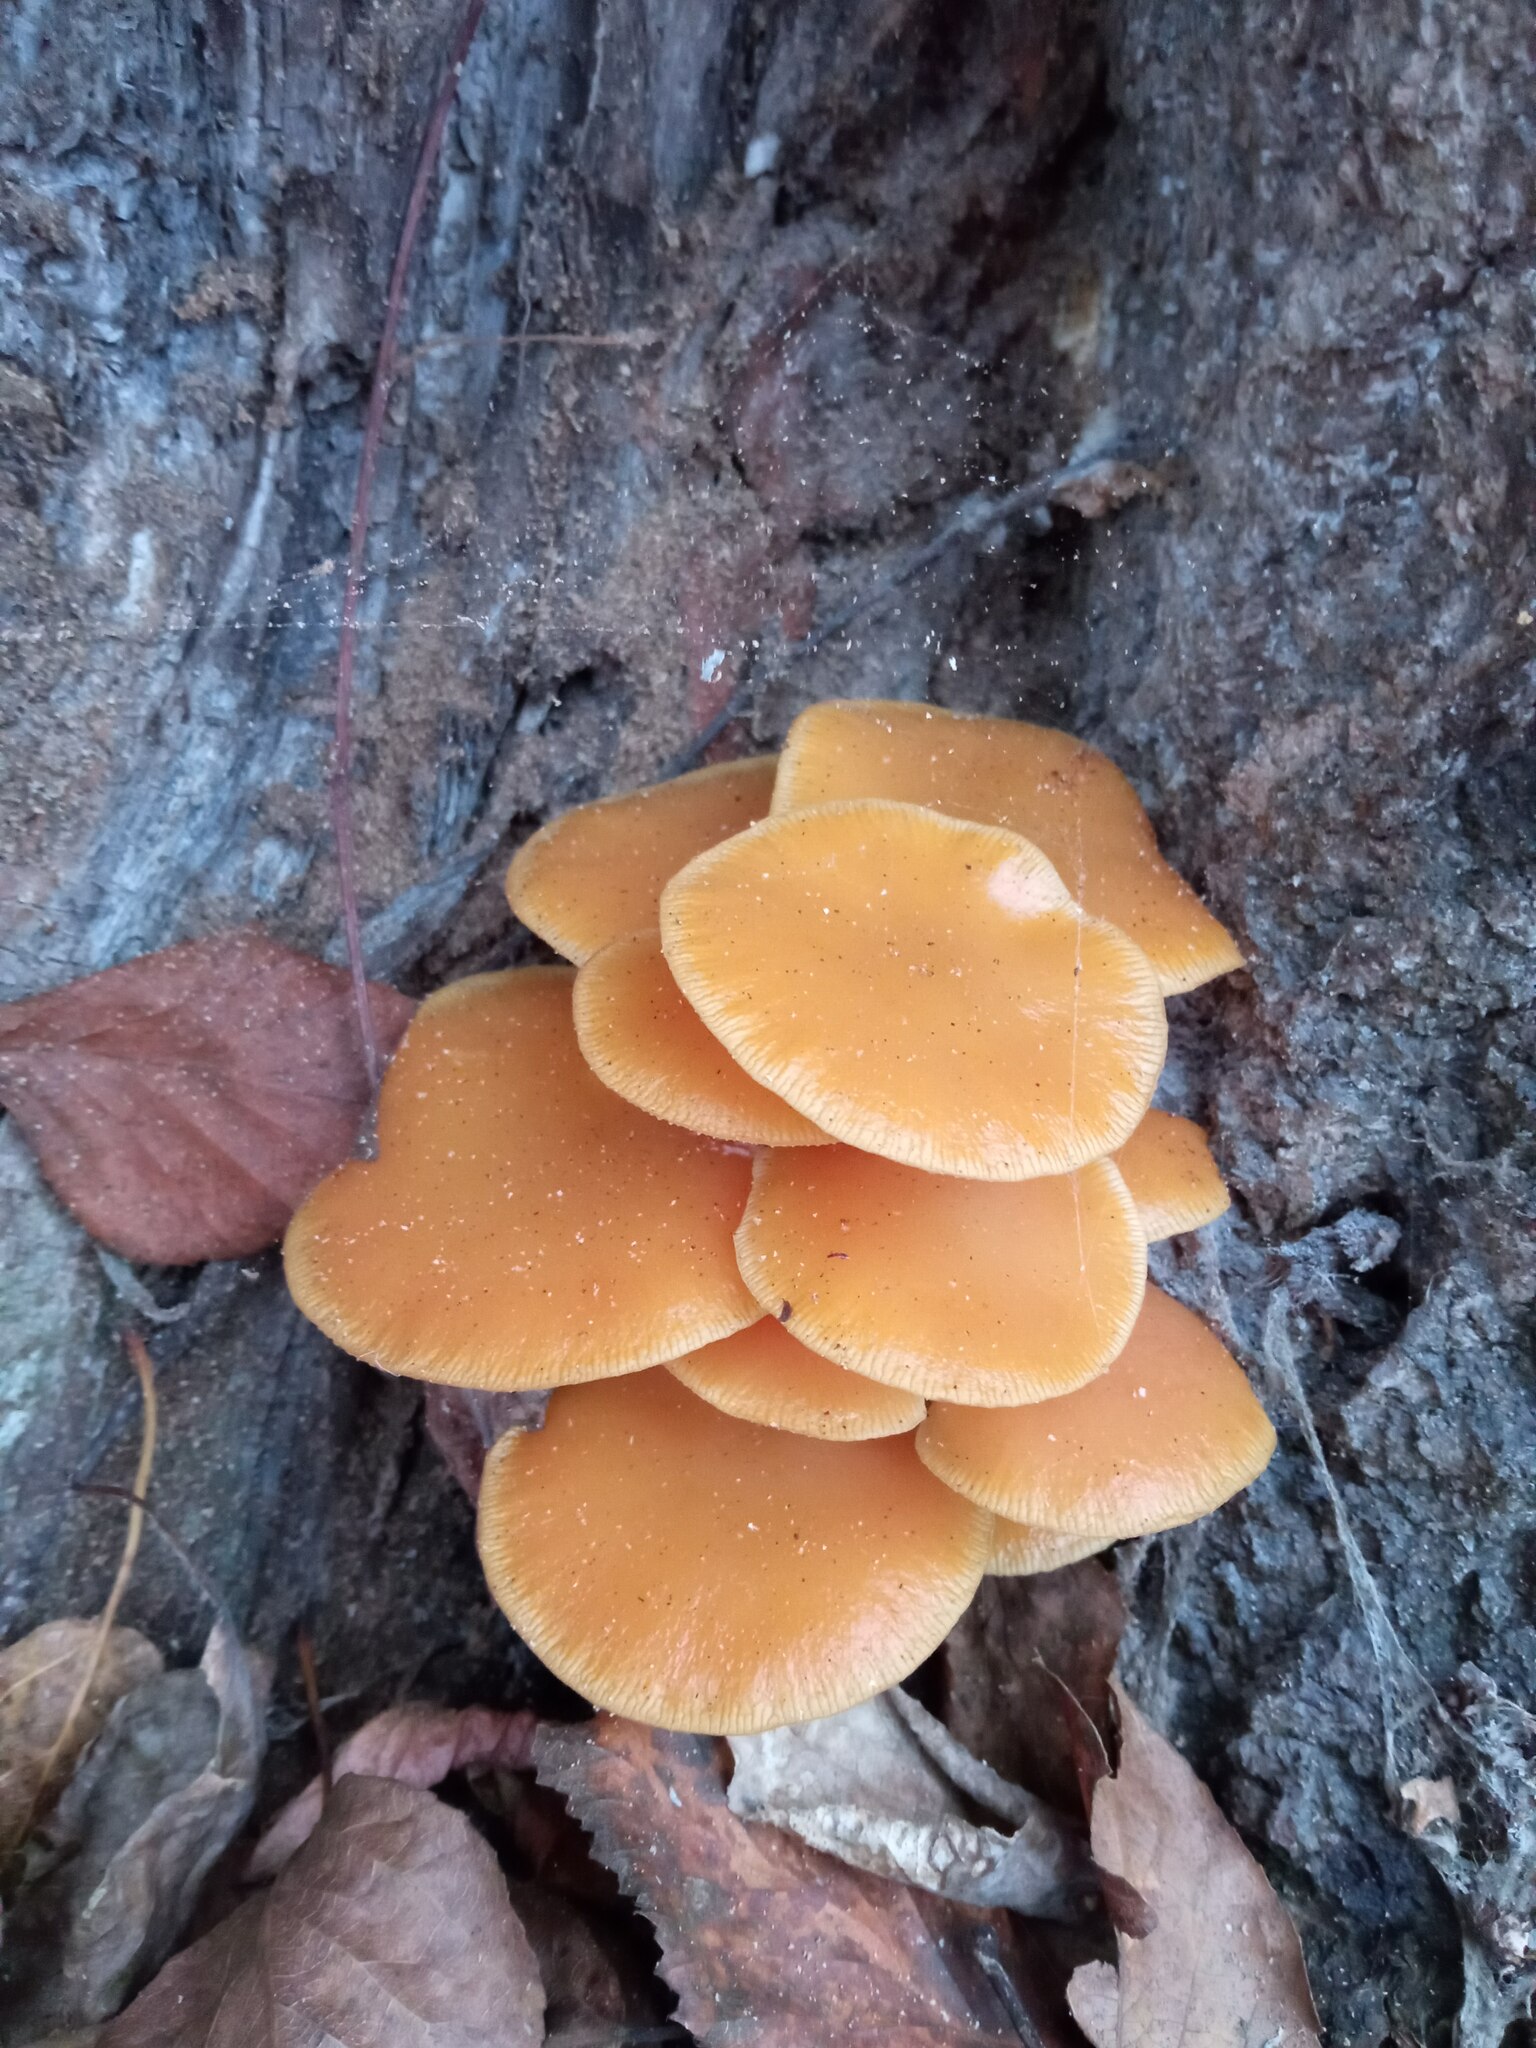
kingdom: Fungi
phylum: Basidiomycota
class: Agaricomycetes
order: Agaricales
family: Physalacriaceae
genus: Flammulina
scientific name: Flammulina
